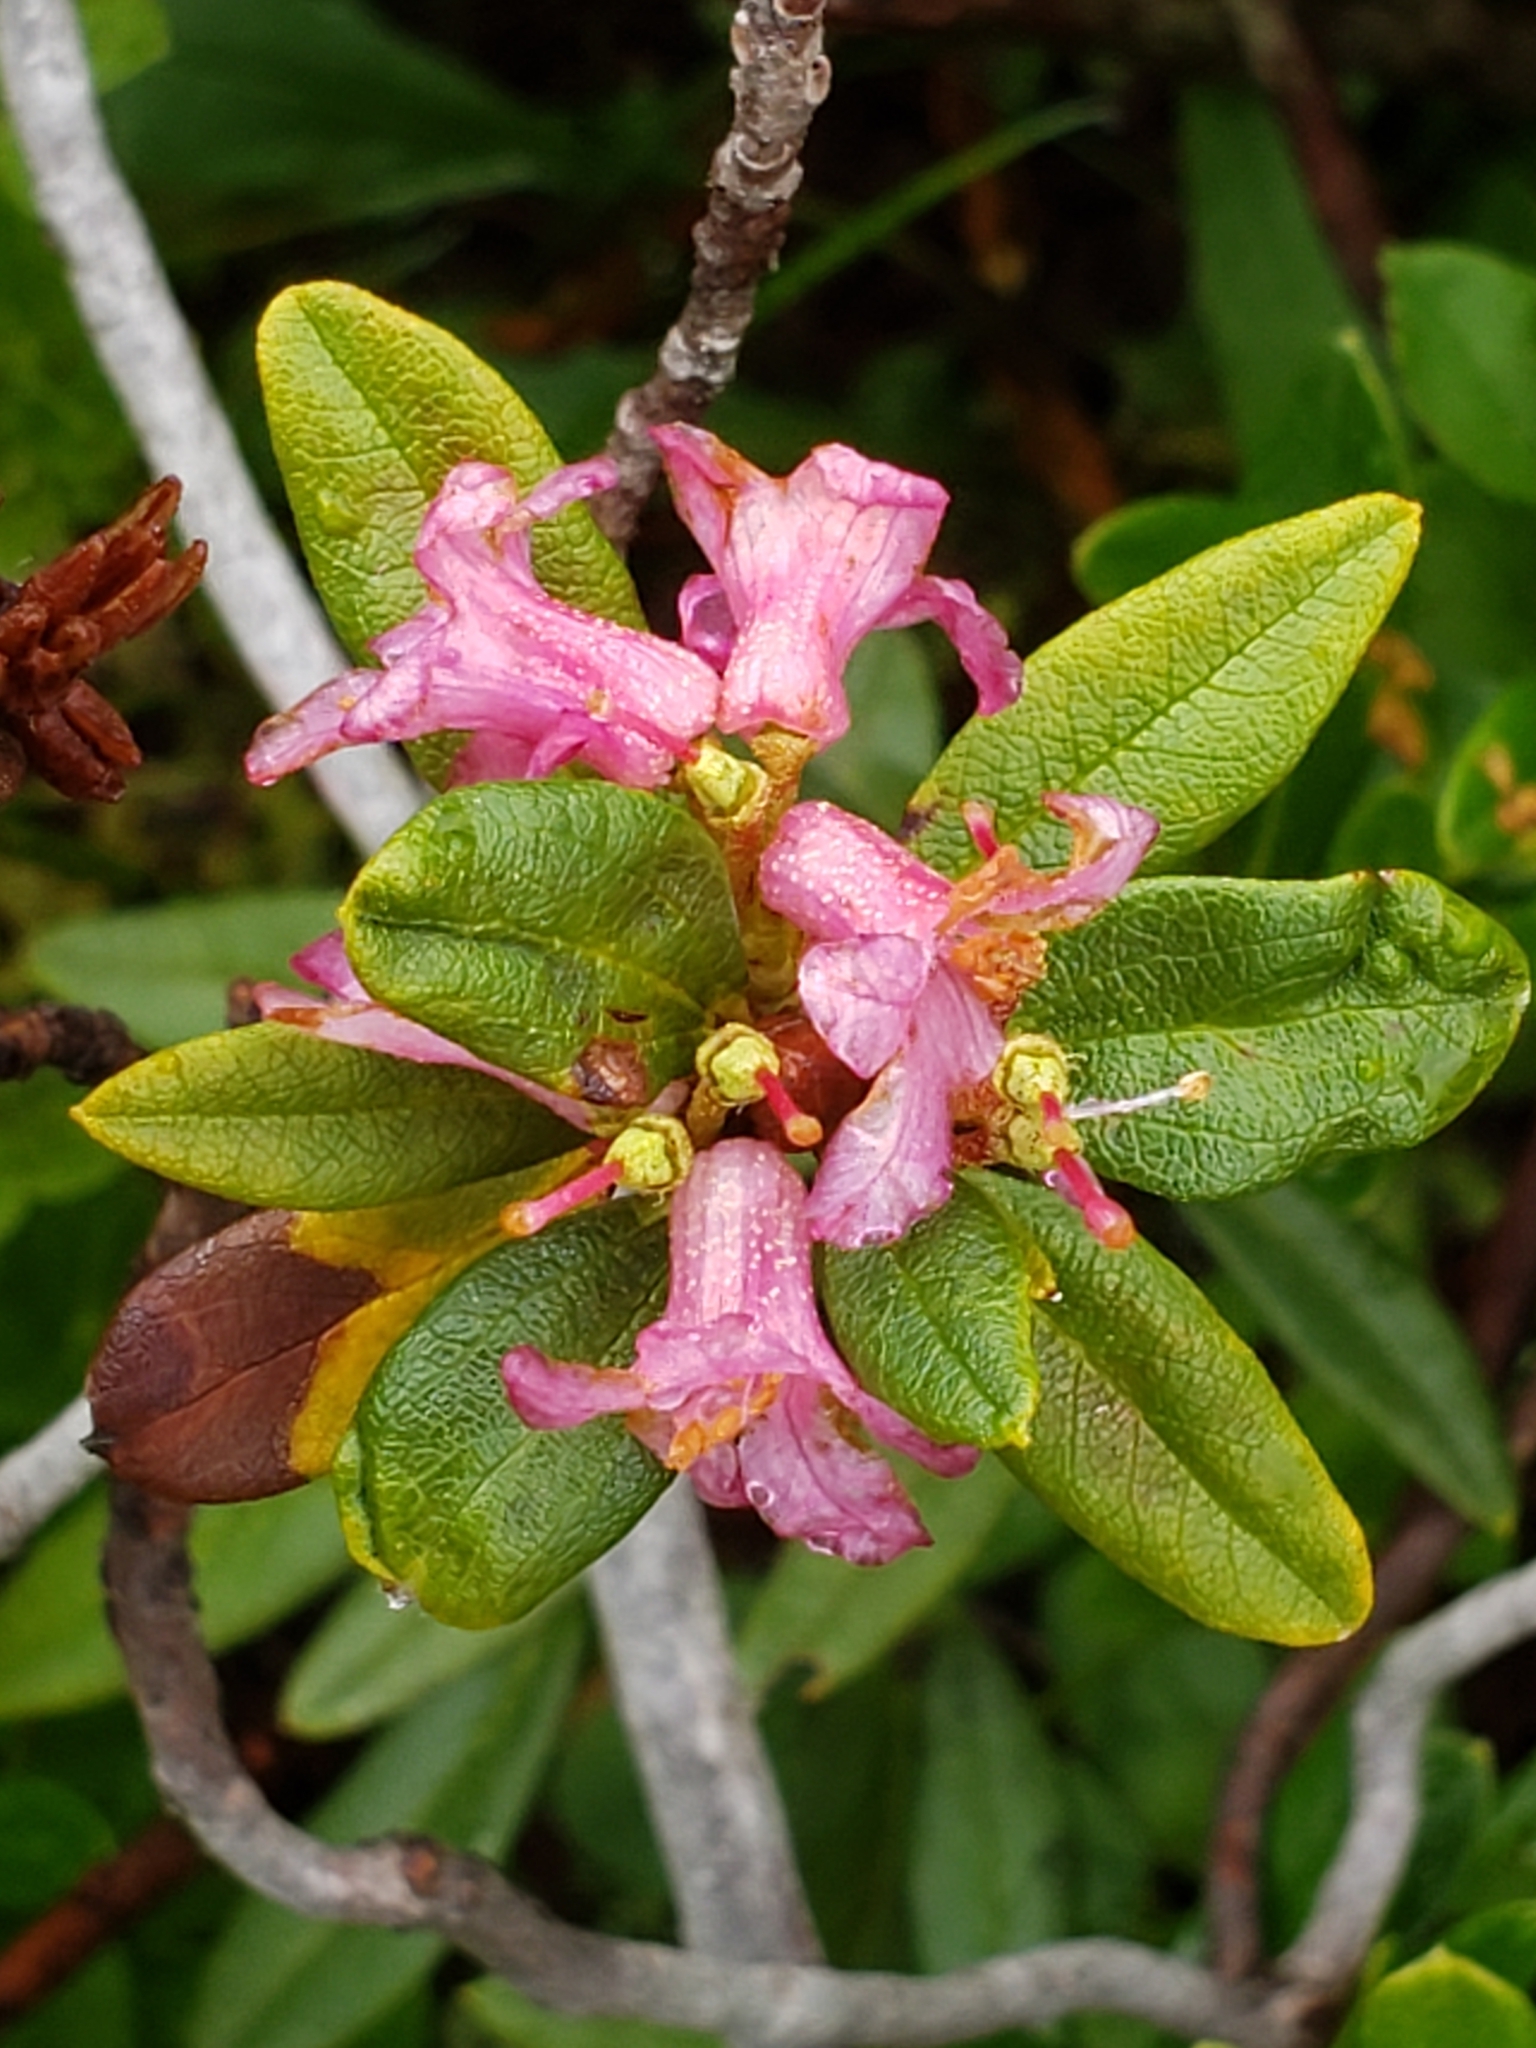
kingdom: Plantae
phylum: Tracheophyta
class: Magnoliopsida
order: Ericales
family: Ericaceae
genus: Rhododendron
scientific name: Rhododendron ferrugineum
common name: Alpenrose
